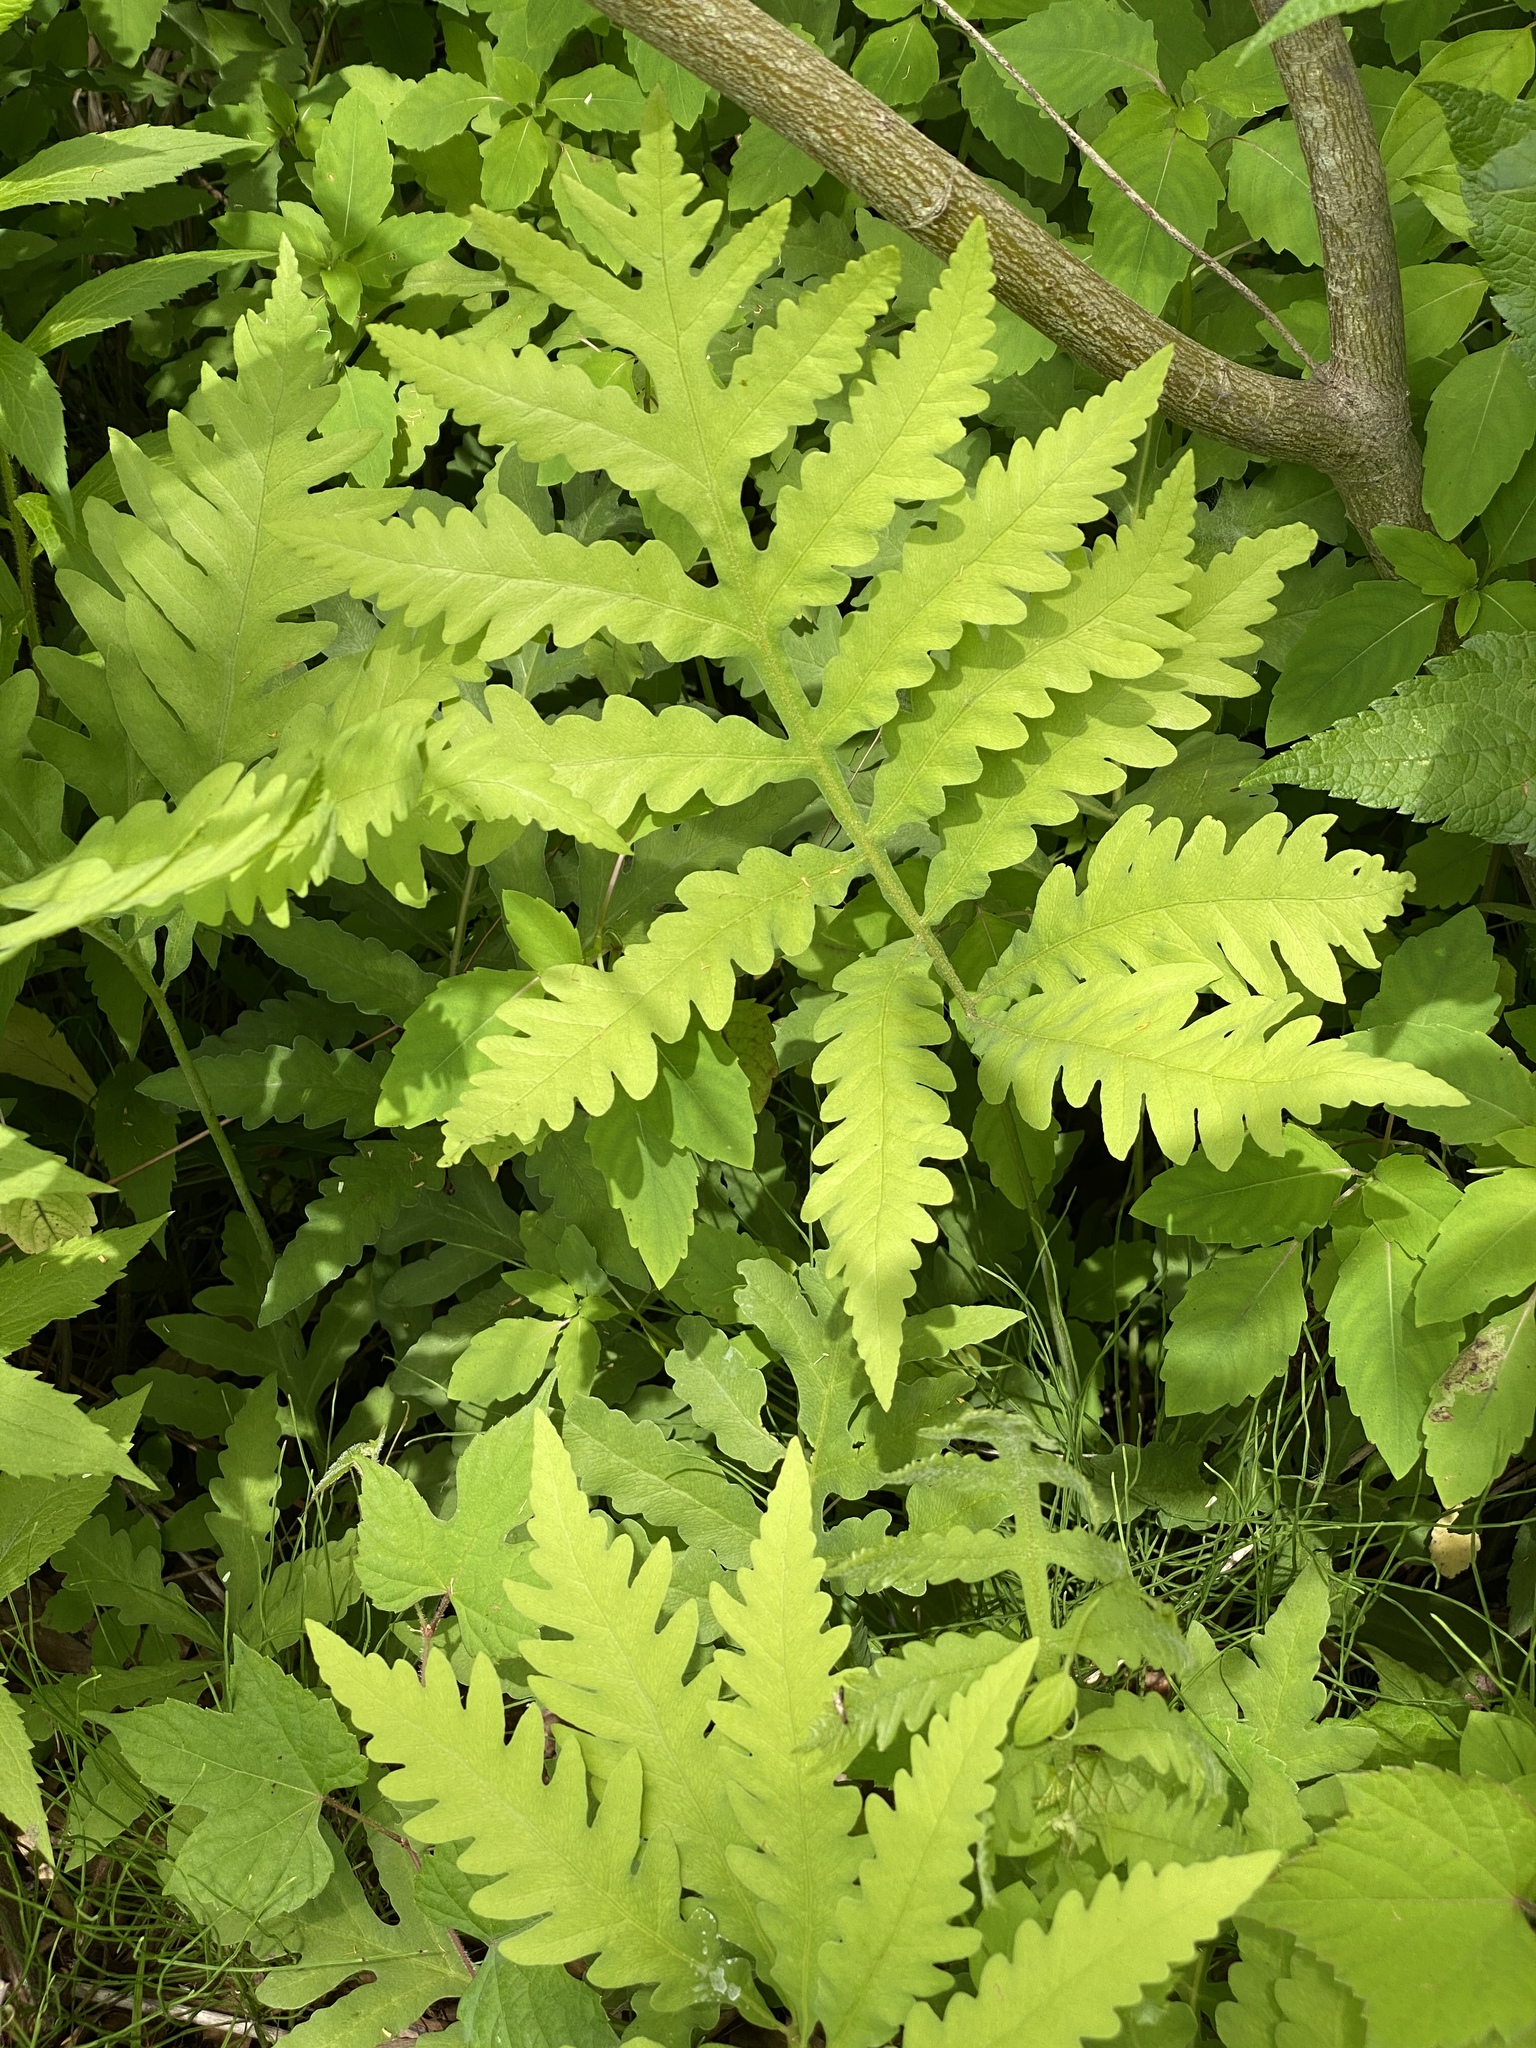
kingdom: Plantae
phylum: Tracheophyta
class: Polypodiopsida
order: Polypodiales
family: Onocleaceae
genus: Onoclea
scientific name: Onoclea sensibilis
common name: Sensitive fern
